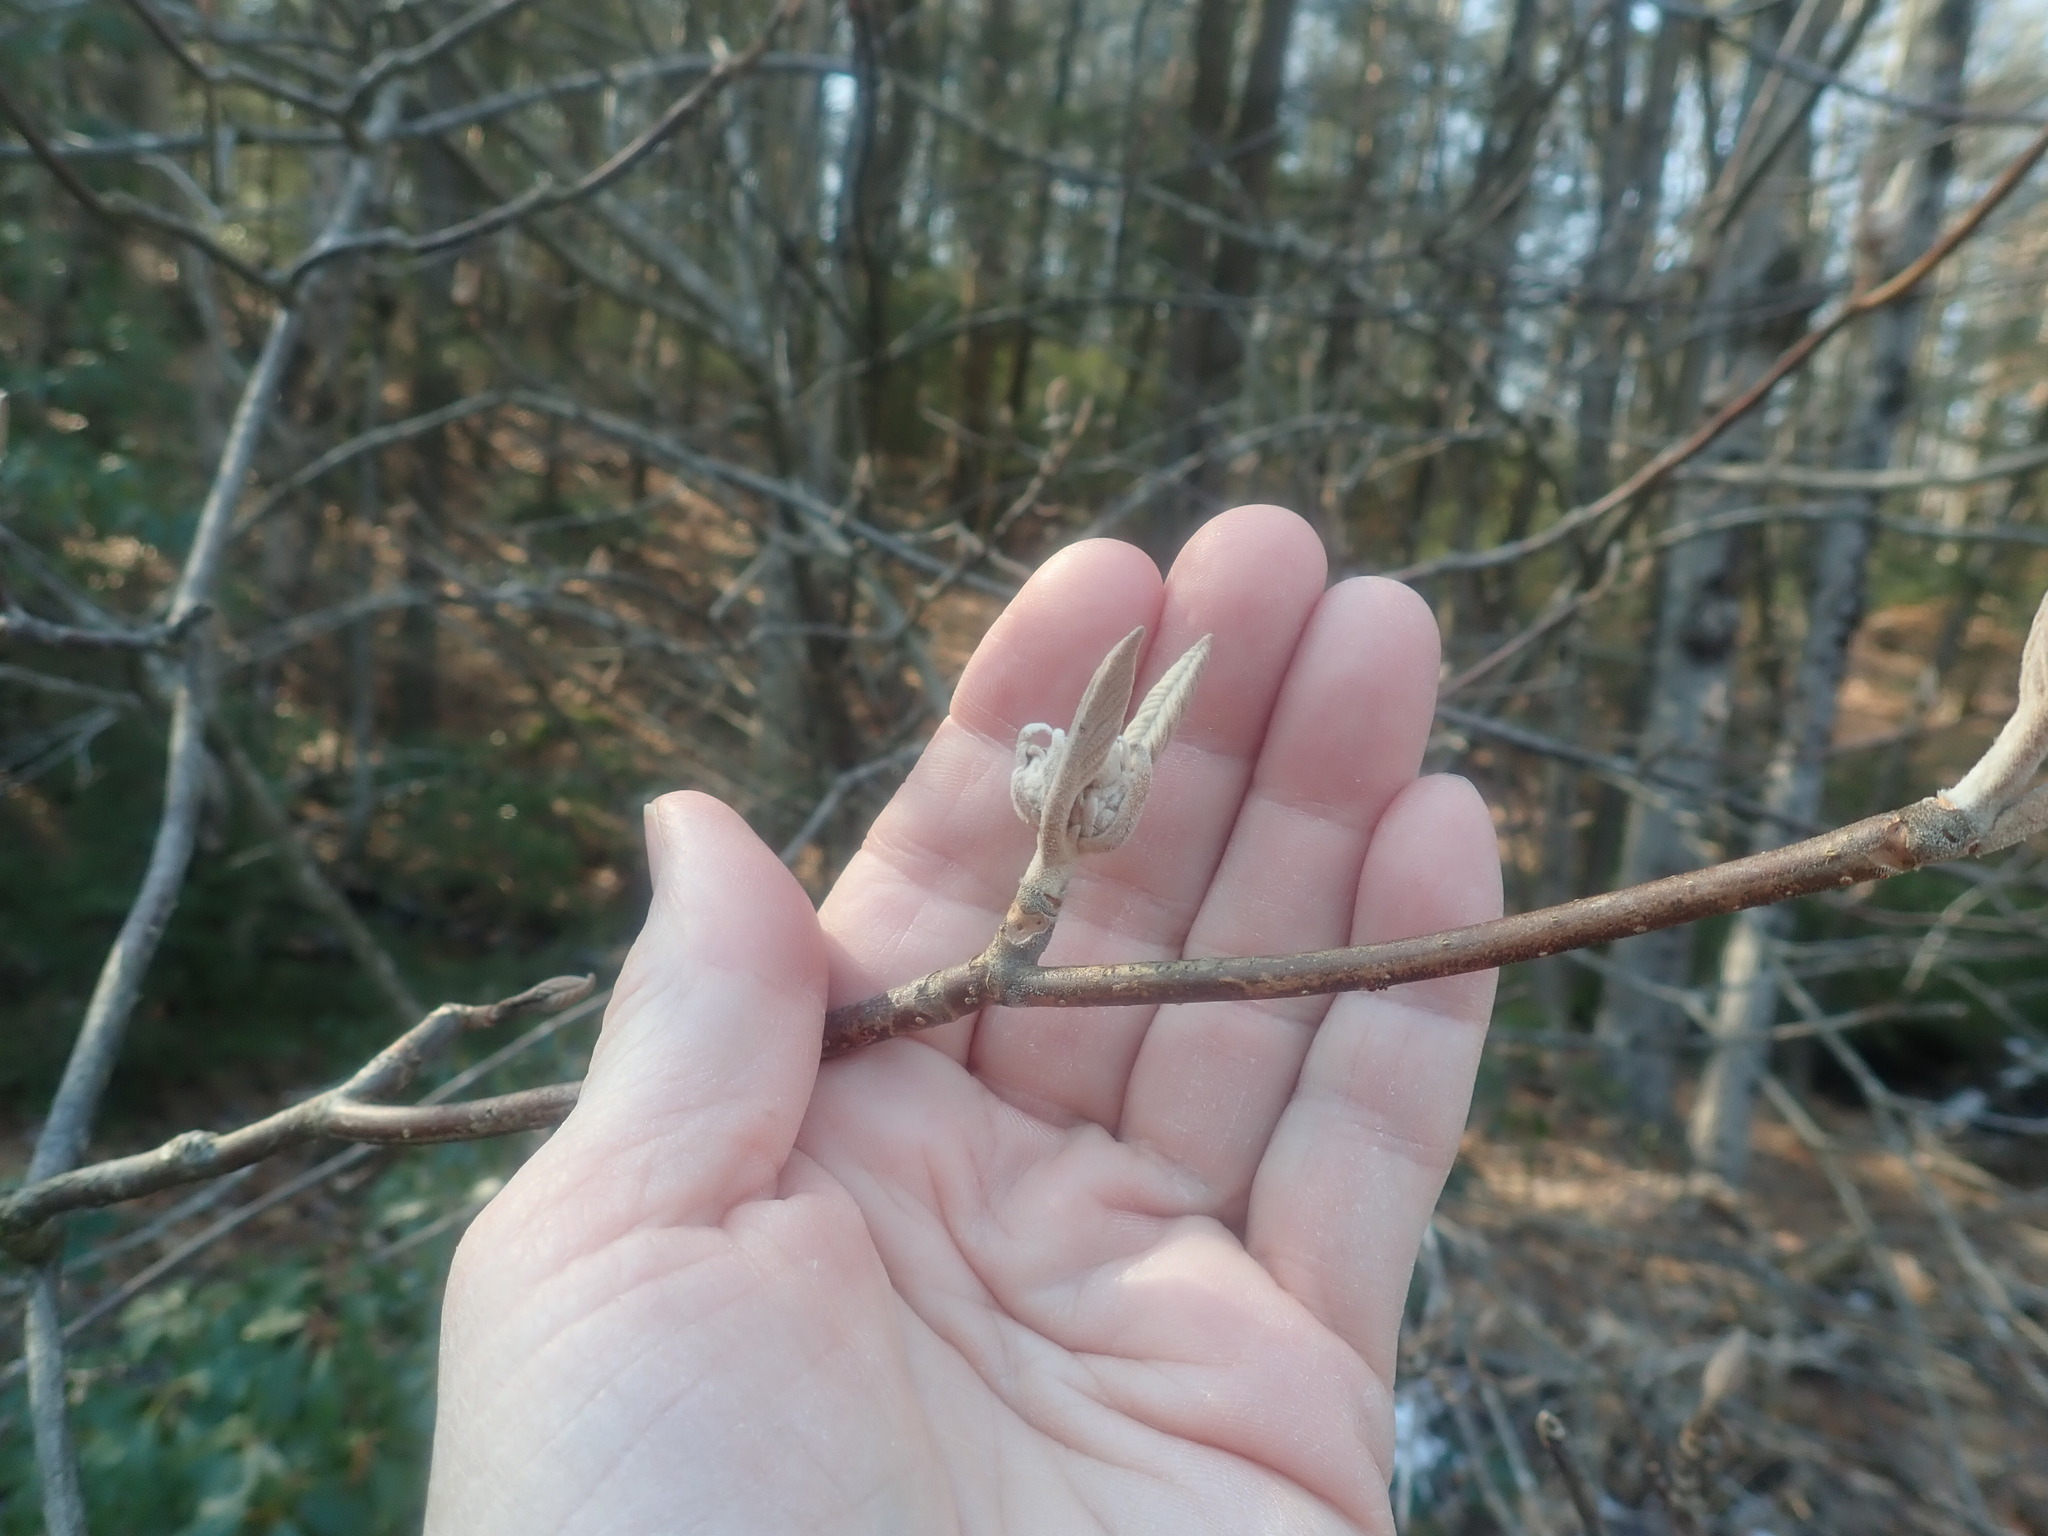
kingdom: Plantae
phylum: Tracheophyta
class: Magnoliopsida
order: Dipsacales
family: Viburnaceae
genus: Viburnum
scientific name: Viburnum lantanoides
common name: Hobblebush
